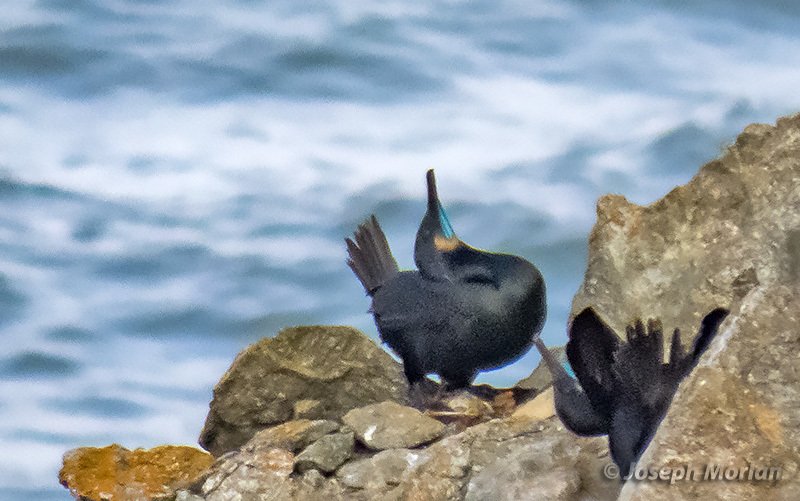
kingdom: Animalia
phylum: Chordata
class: Aves
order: Suliformes
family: Phalacrocoracidae
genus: Urile
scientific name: Urile penicillatus
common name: Brandt's cormorant
